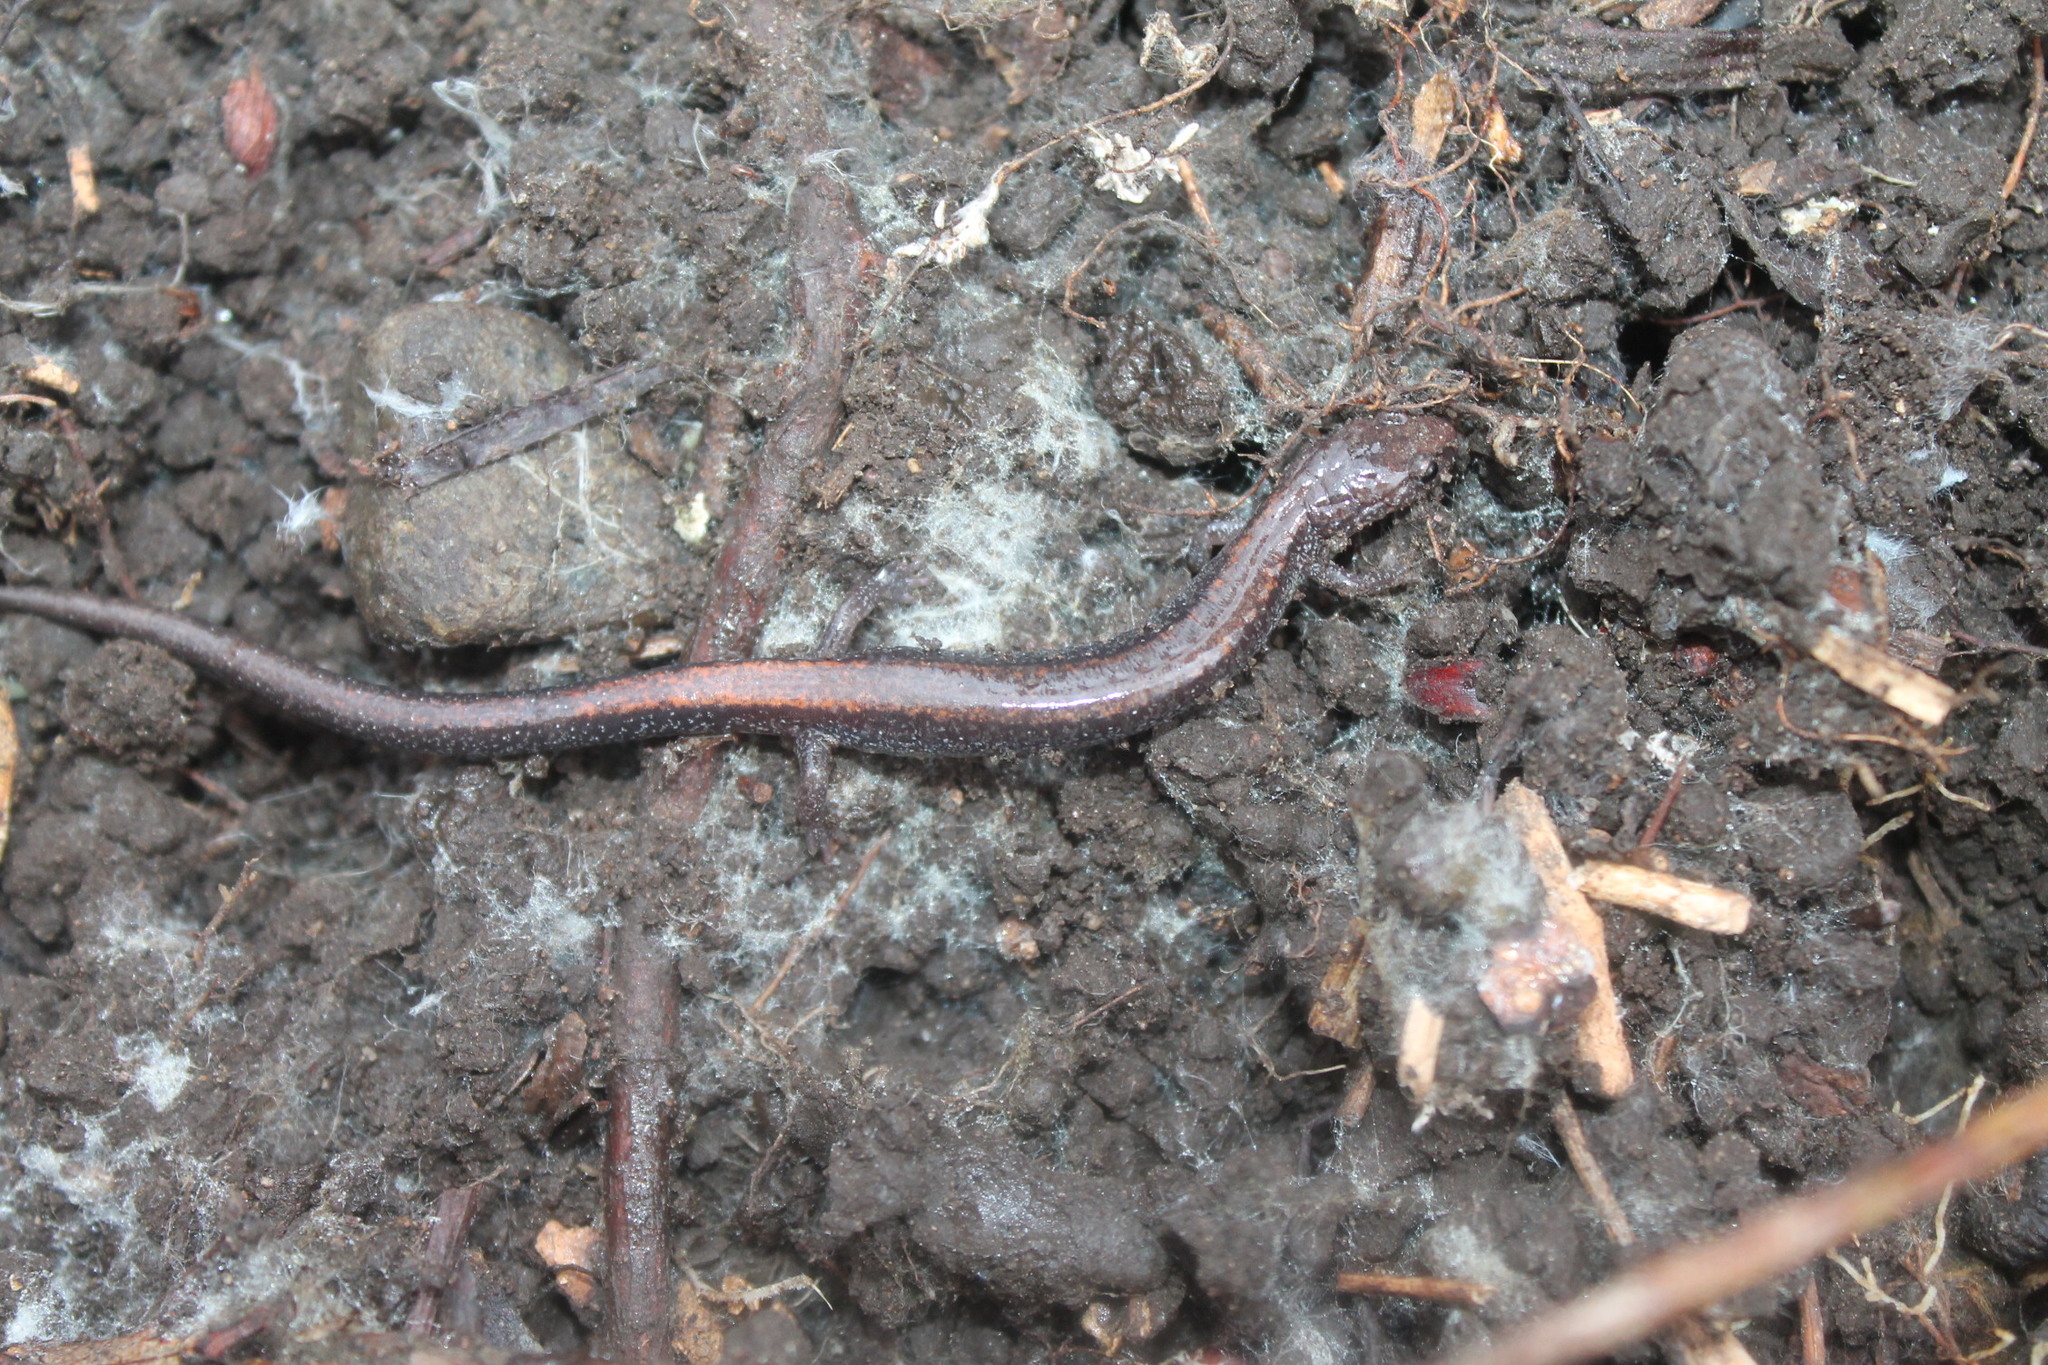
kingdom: Animalia
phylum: Chordata
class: Amphibia
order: Caudata
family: Plethodontidae
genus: Plethodon
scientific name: Plethodon cinereus
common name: Redback salamander
